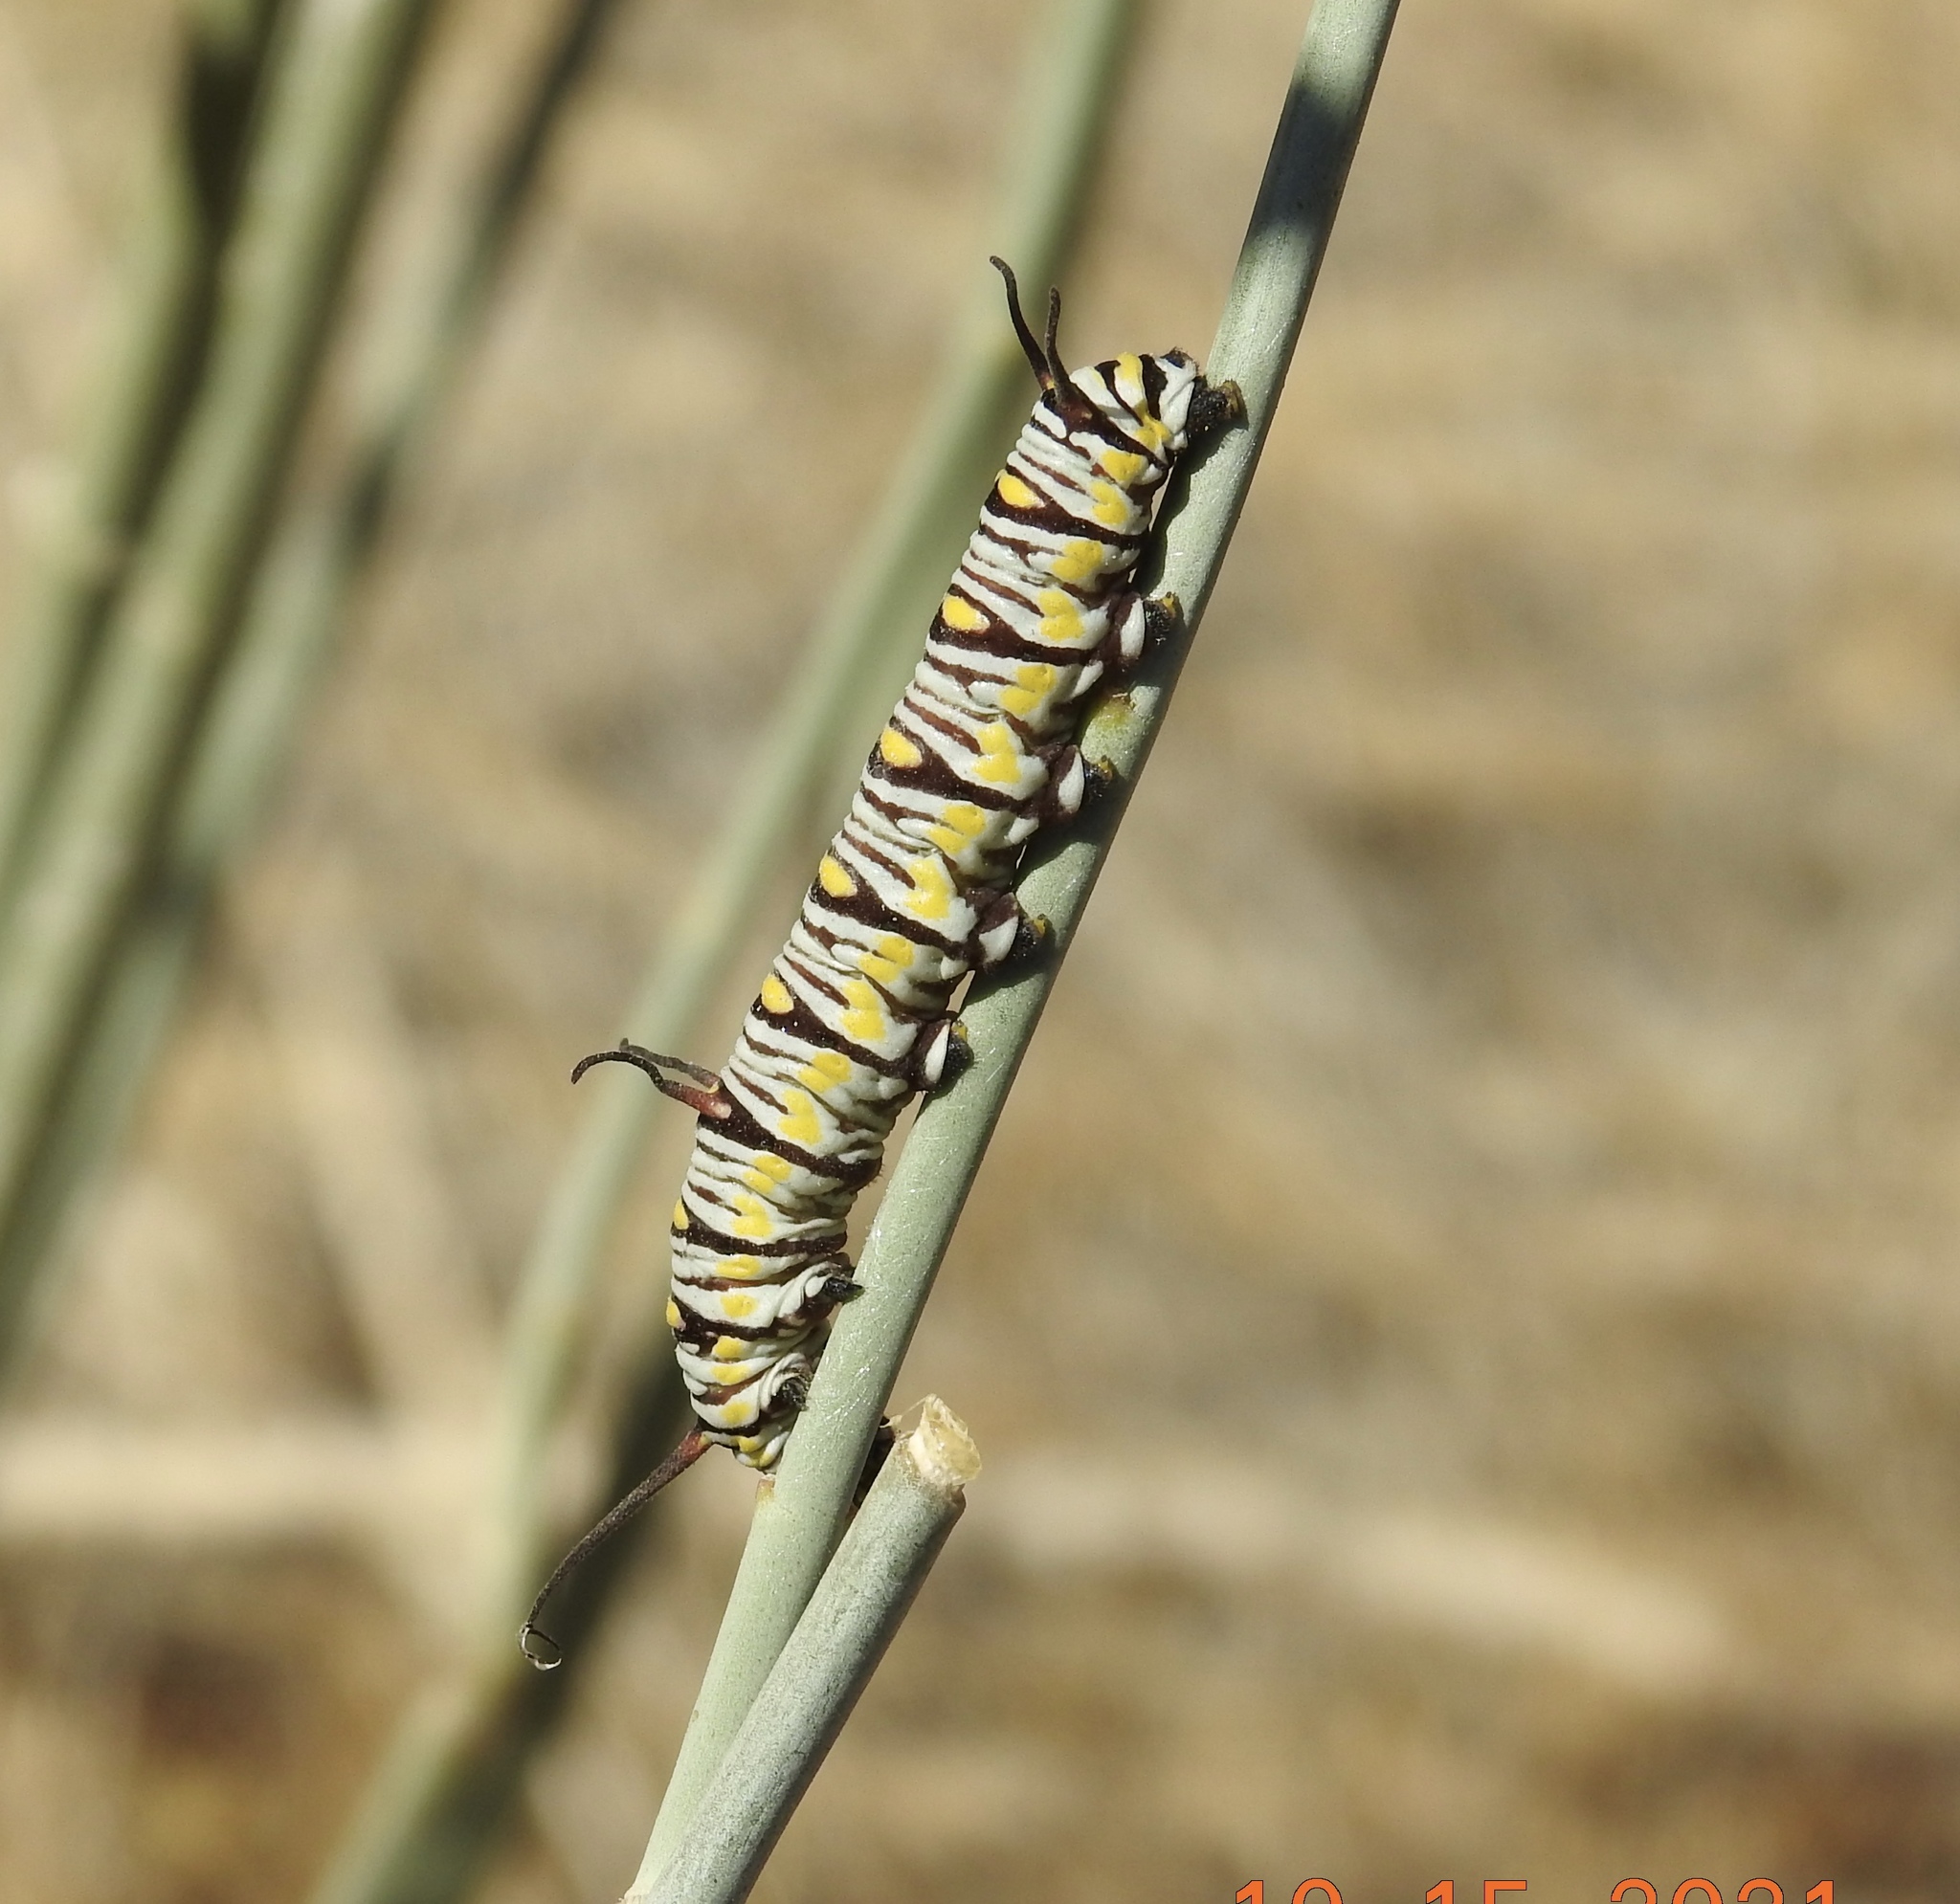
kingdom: Animalia
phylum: Arthropoda
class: Insecta
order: Lepidoptera
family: Nymphalidae
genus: Danaus
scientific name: Danaus gilippus
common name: Queen
